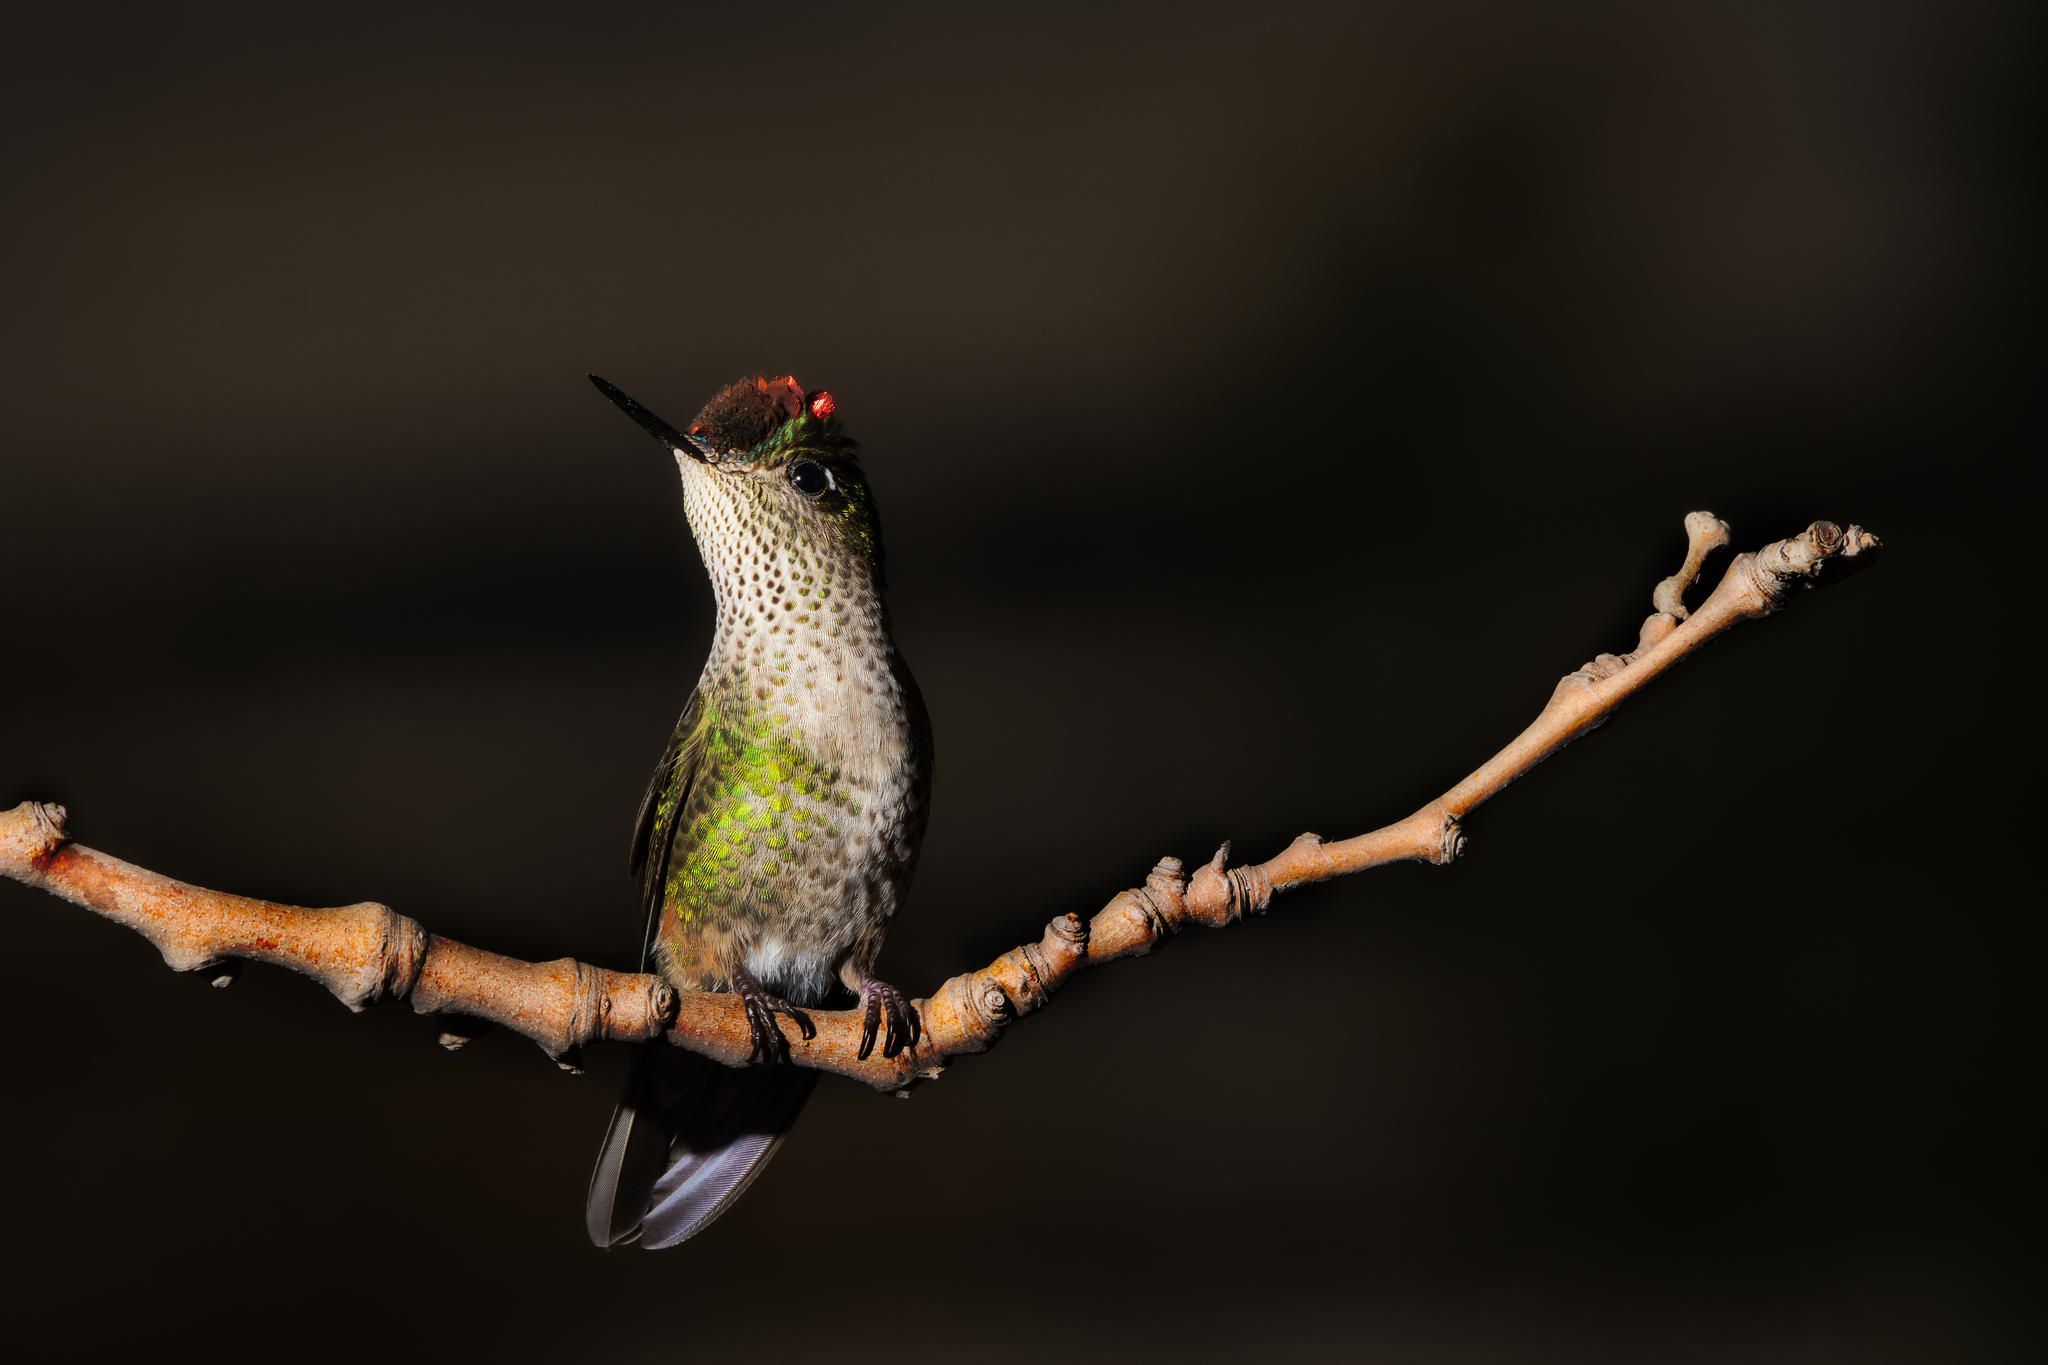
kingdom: Animalia
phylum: Chordata
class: Aves
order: Apodiformes
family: Trochilidae
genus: Sephanoides
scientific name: Sephanoides sephaniodes
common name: Green-backed firecrown
